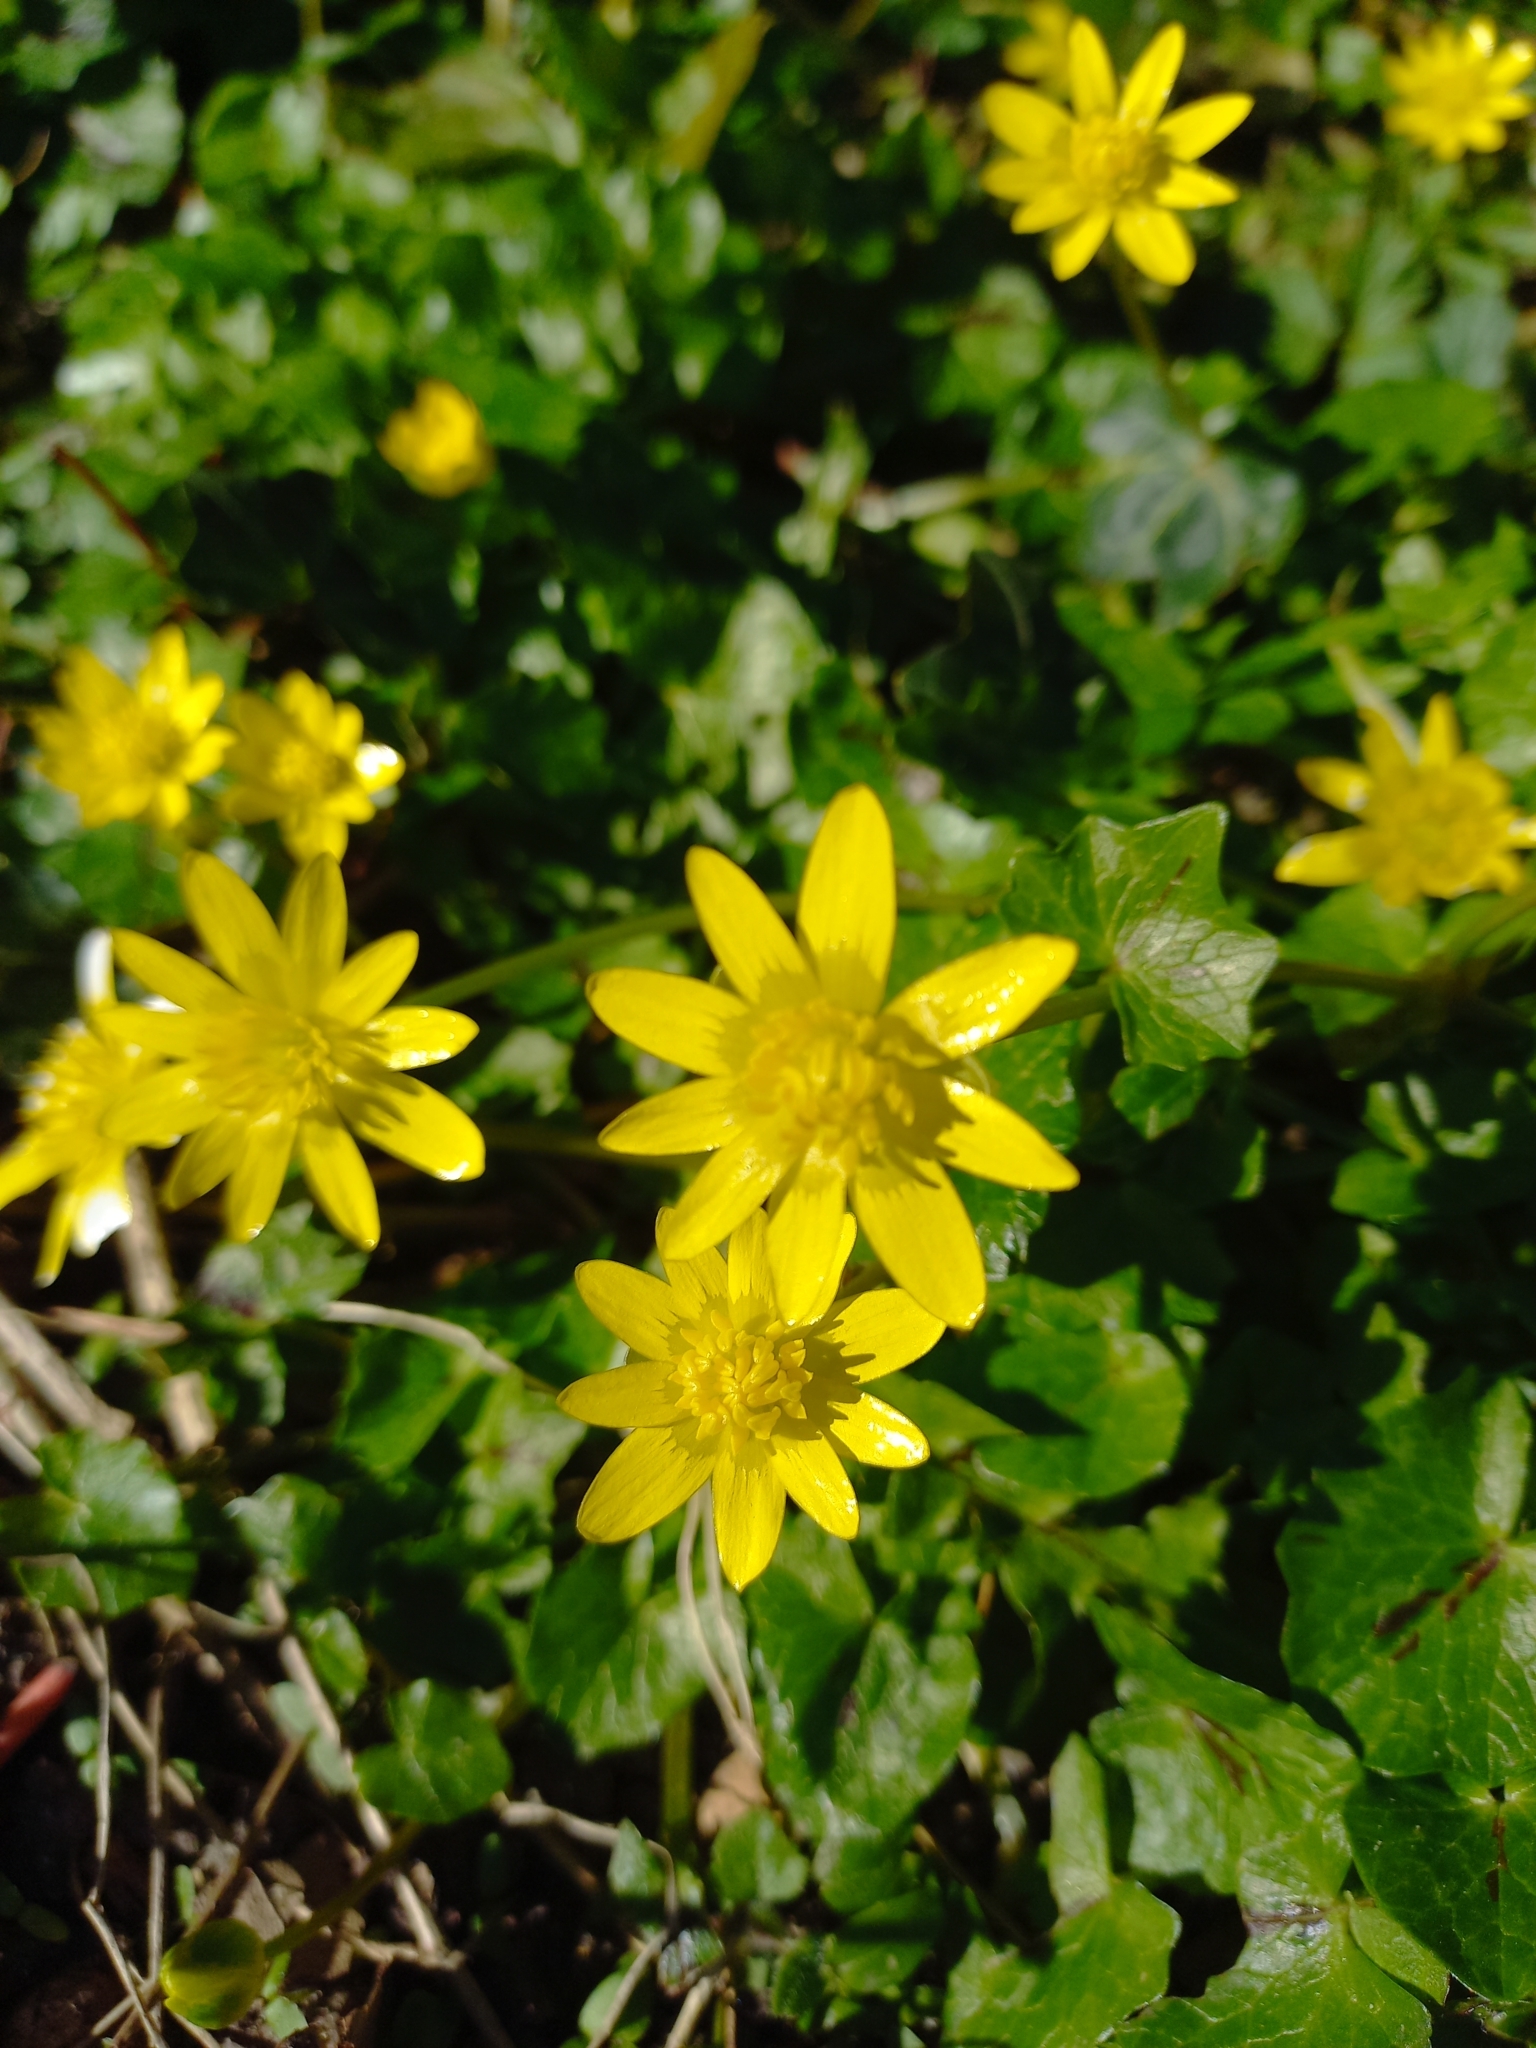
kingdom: Plantae
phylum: Tracheophyta
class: Magnoliopsida
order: Ranunculales
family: Ranunculaceae
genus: Ficaria
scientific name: Ficaria verna
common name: Lesser celandine
